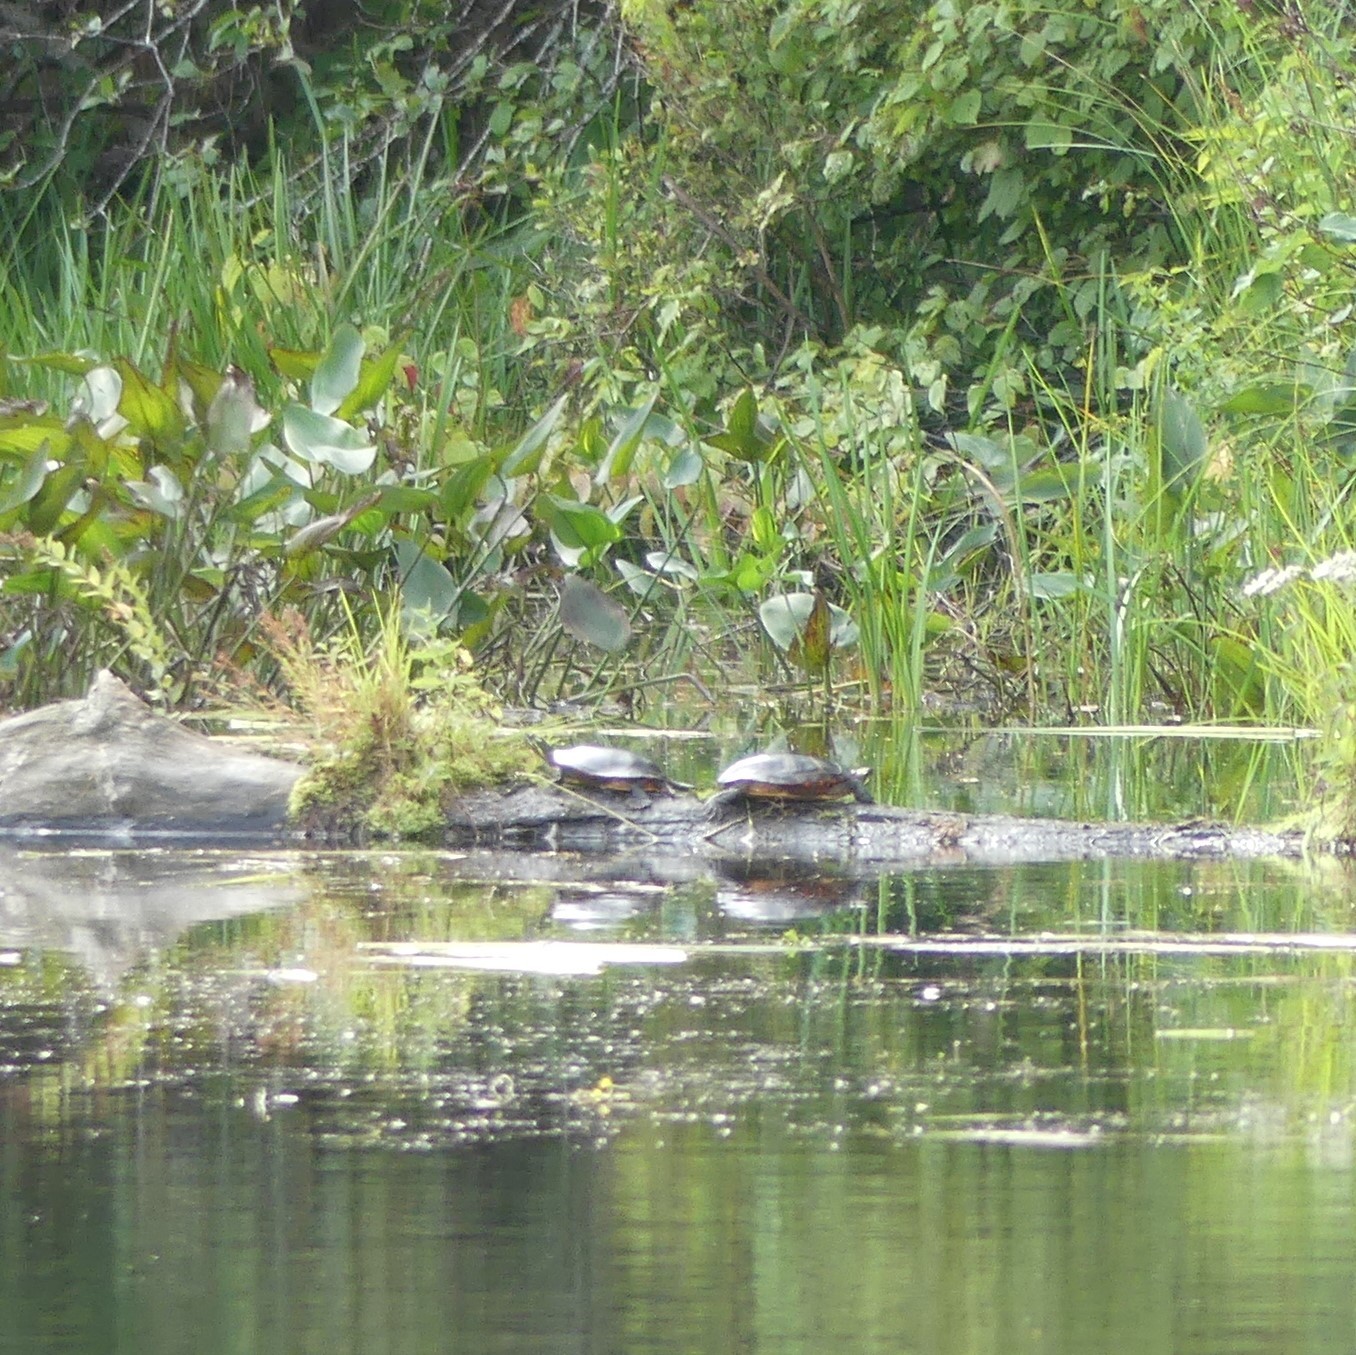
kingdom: Animalia
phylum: Chordata
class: Testudines
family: Emydidae
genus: Chrysemys
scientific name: Chrysemys picta
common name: Painted turtle
